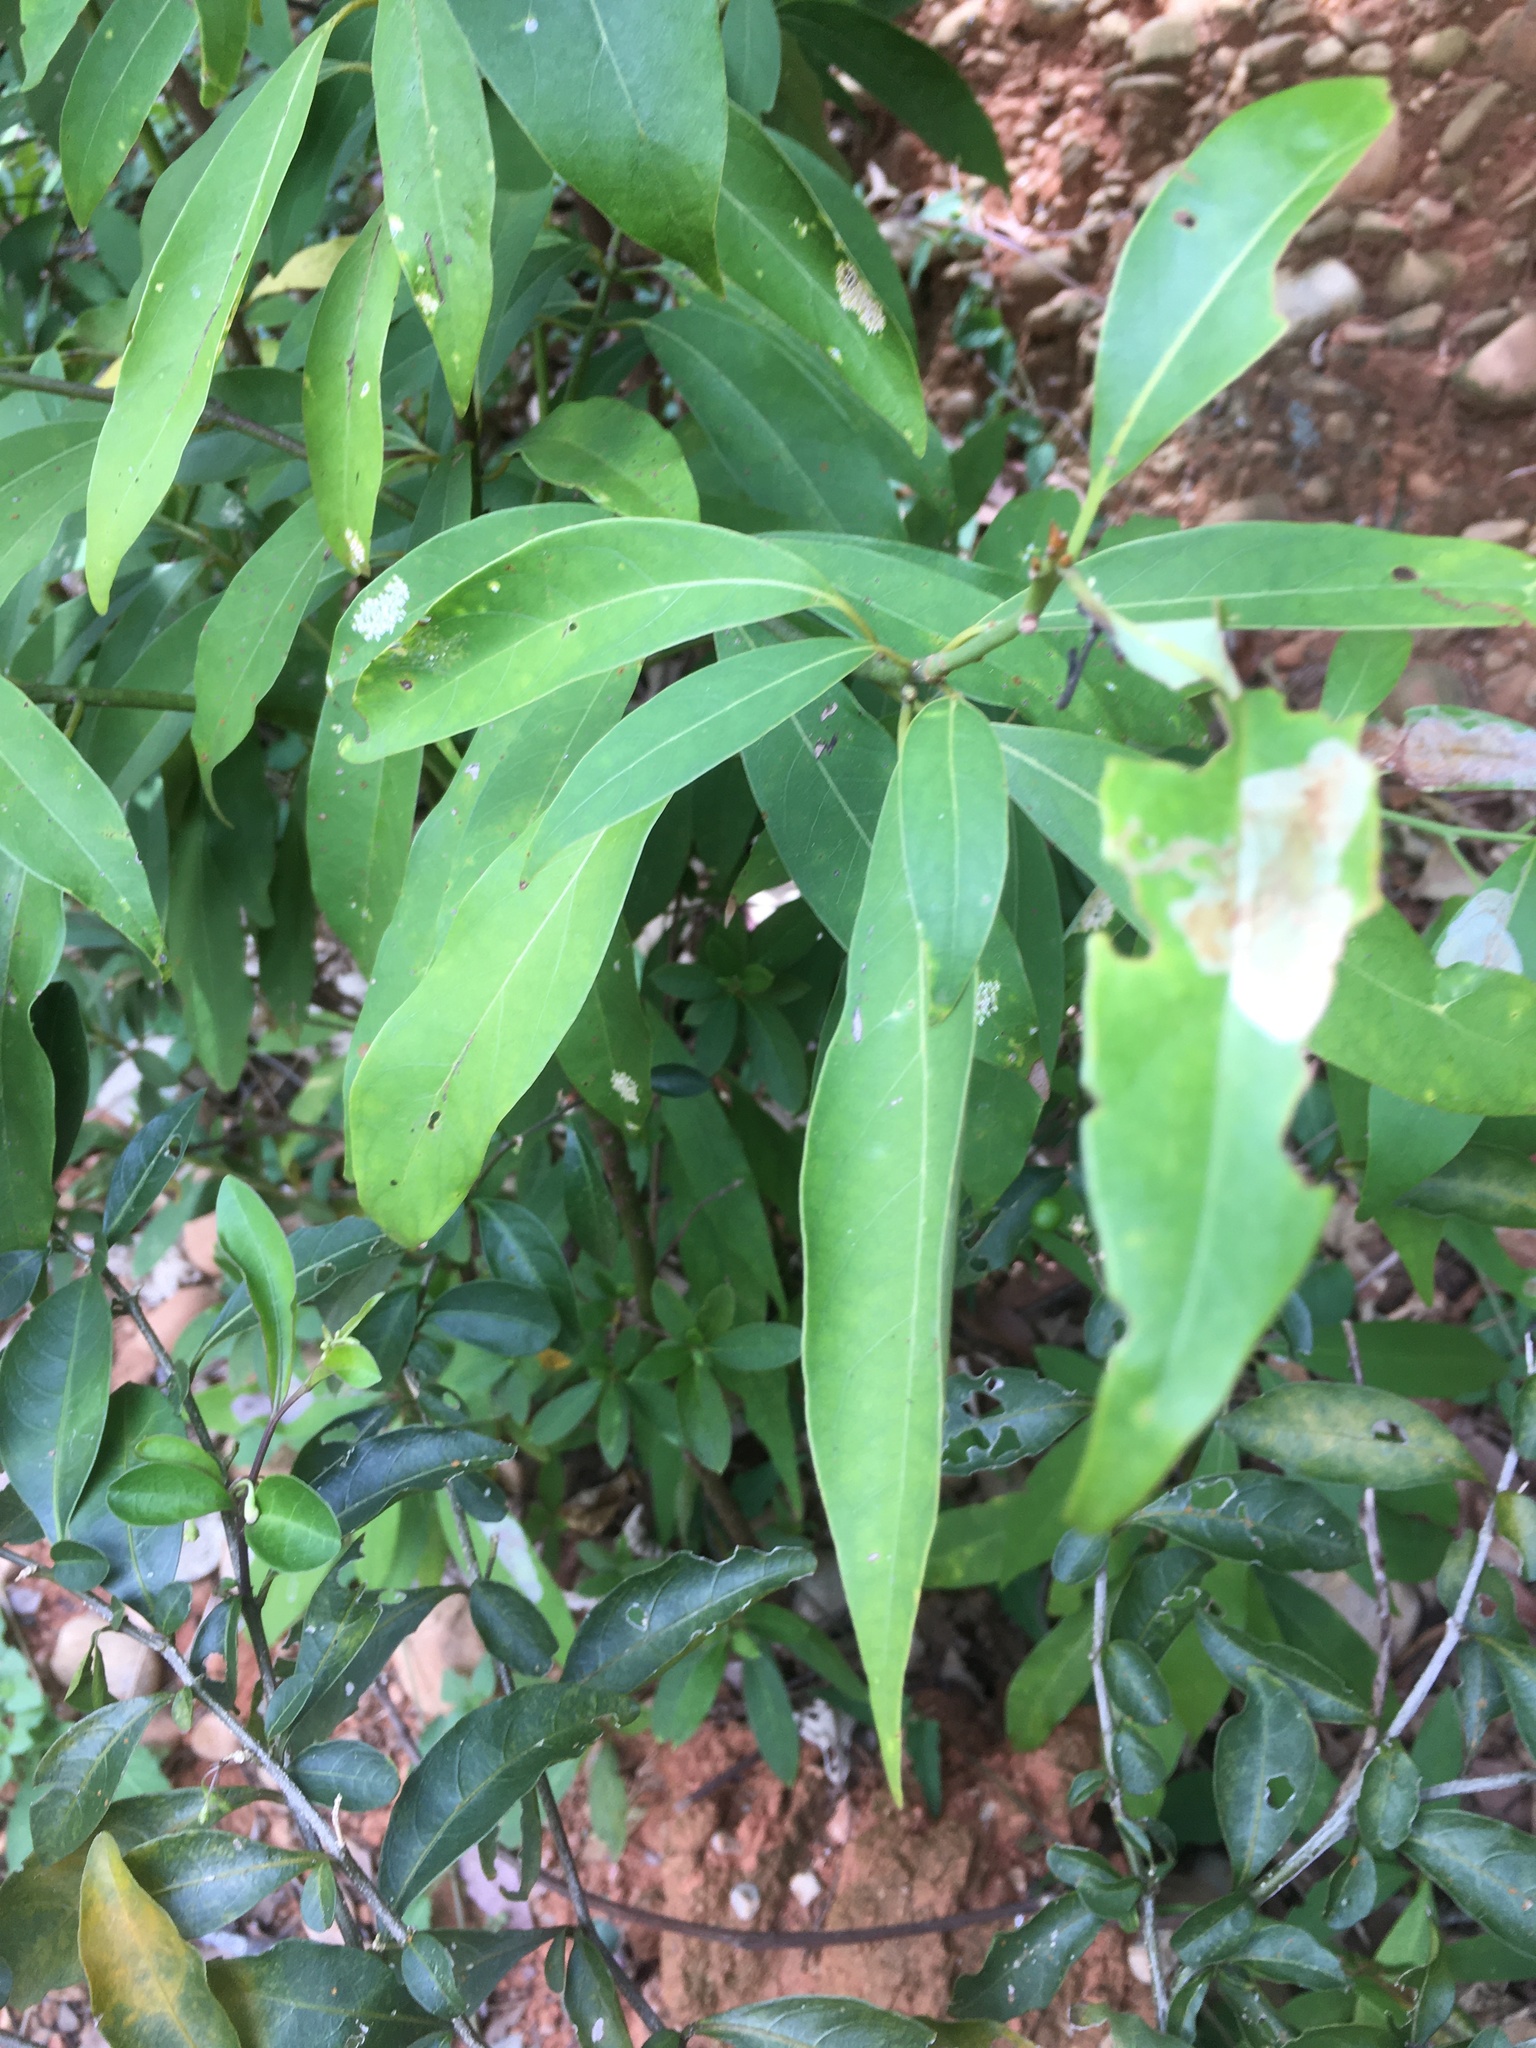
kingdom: Plantae
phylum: Tracheophyta
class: Magnoliopsida
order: Laurales
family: Lauraceae
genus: Machilus
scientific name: Machilus zuihoensis
